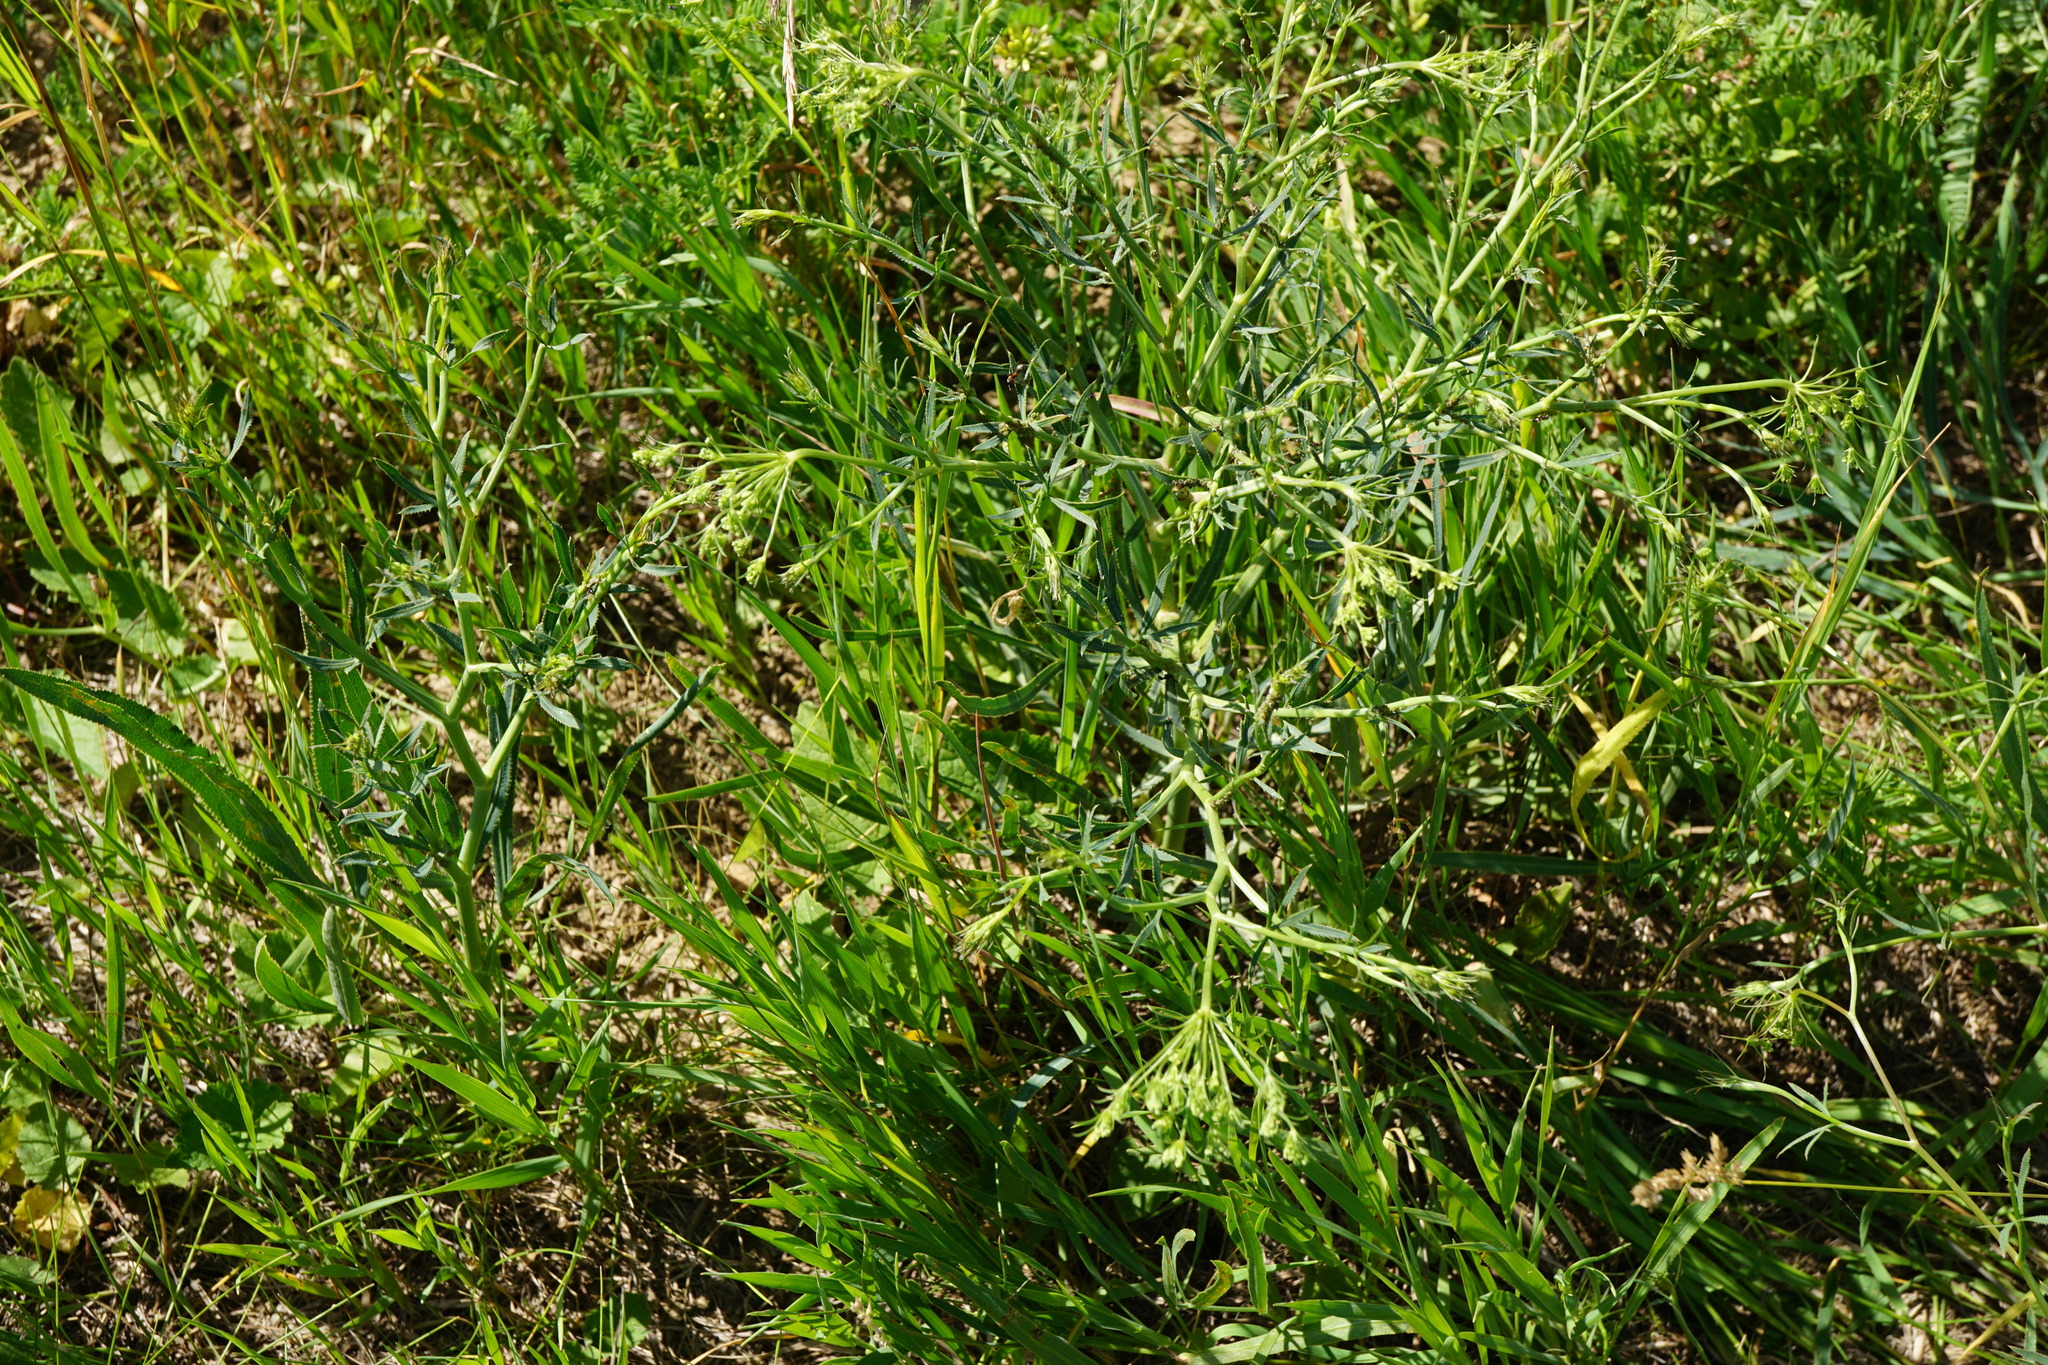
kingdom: Plantae
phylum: Tracheophyta
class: Magnoliopsida
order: Apiales
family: Apiaceae
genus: Falcaria
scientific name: Falcaria vulgaris
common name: Longleaf
